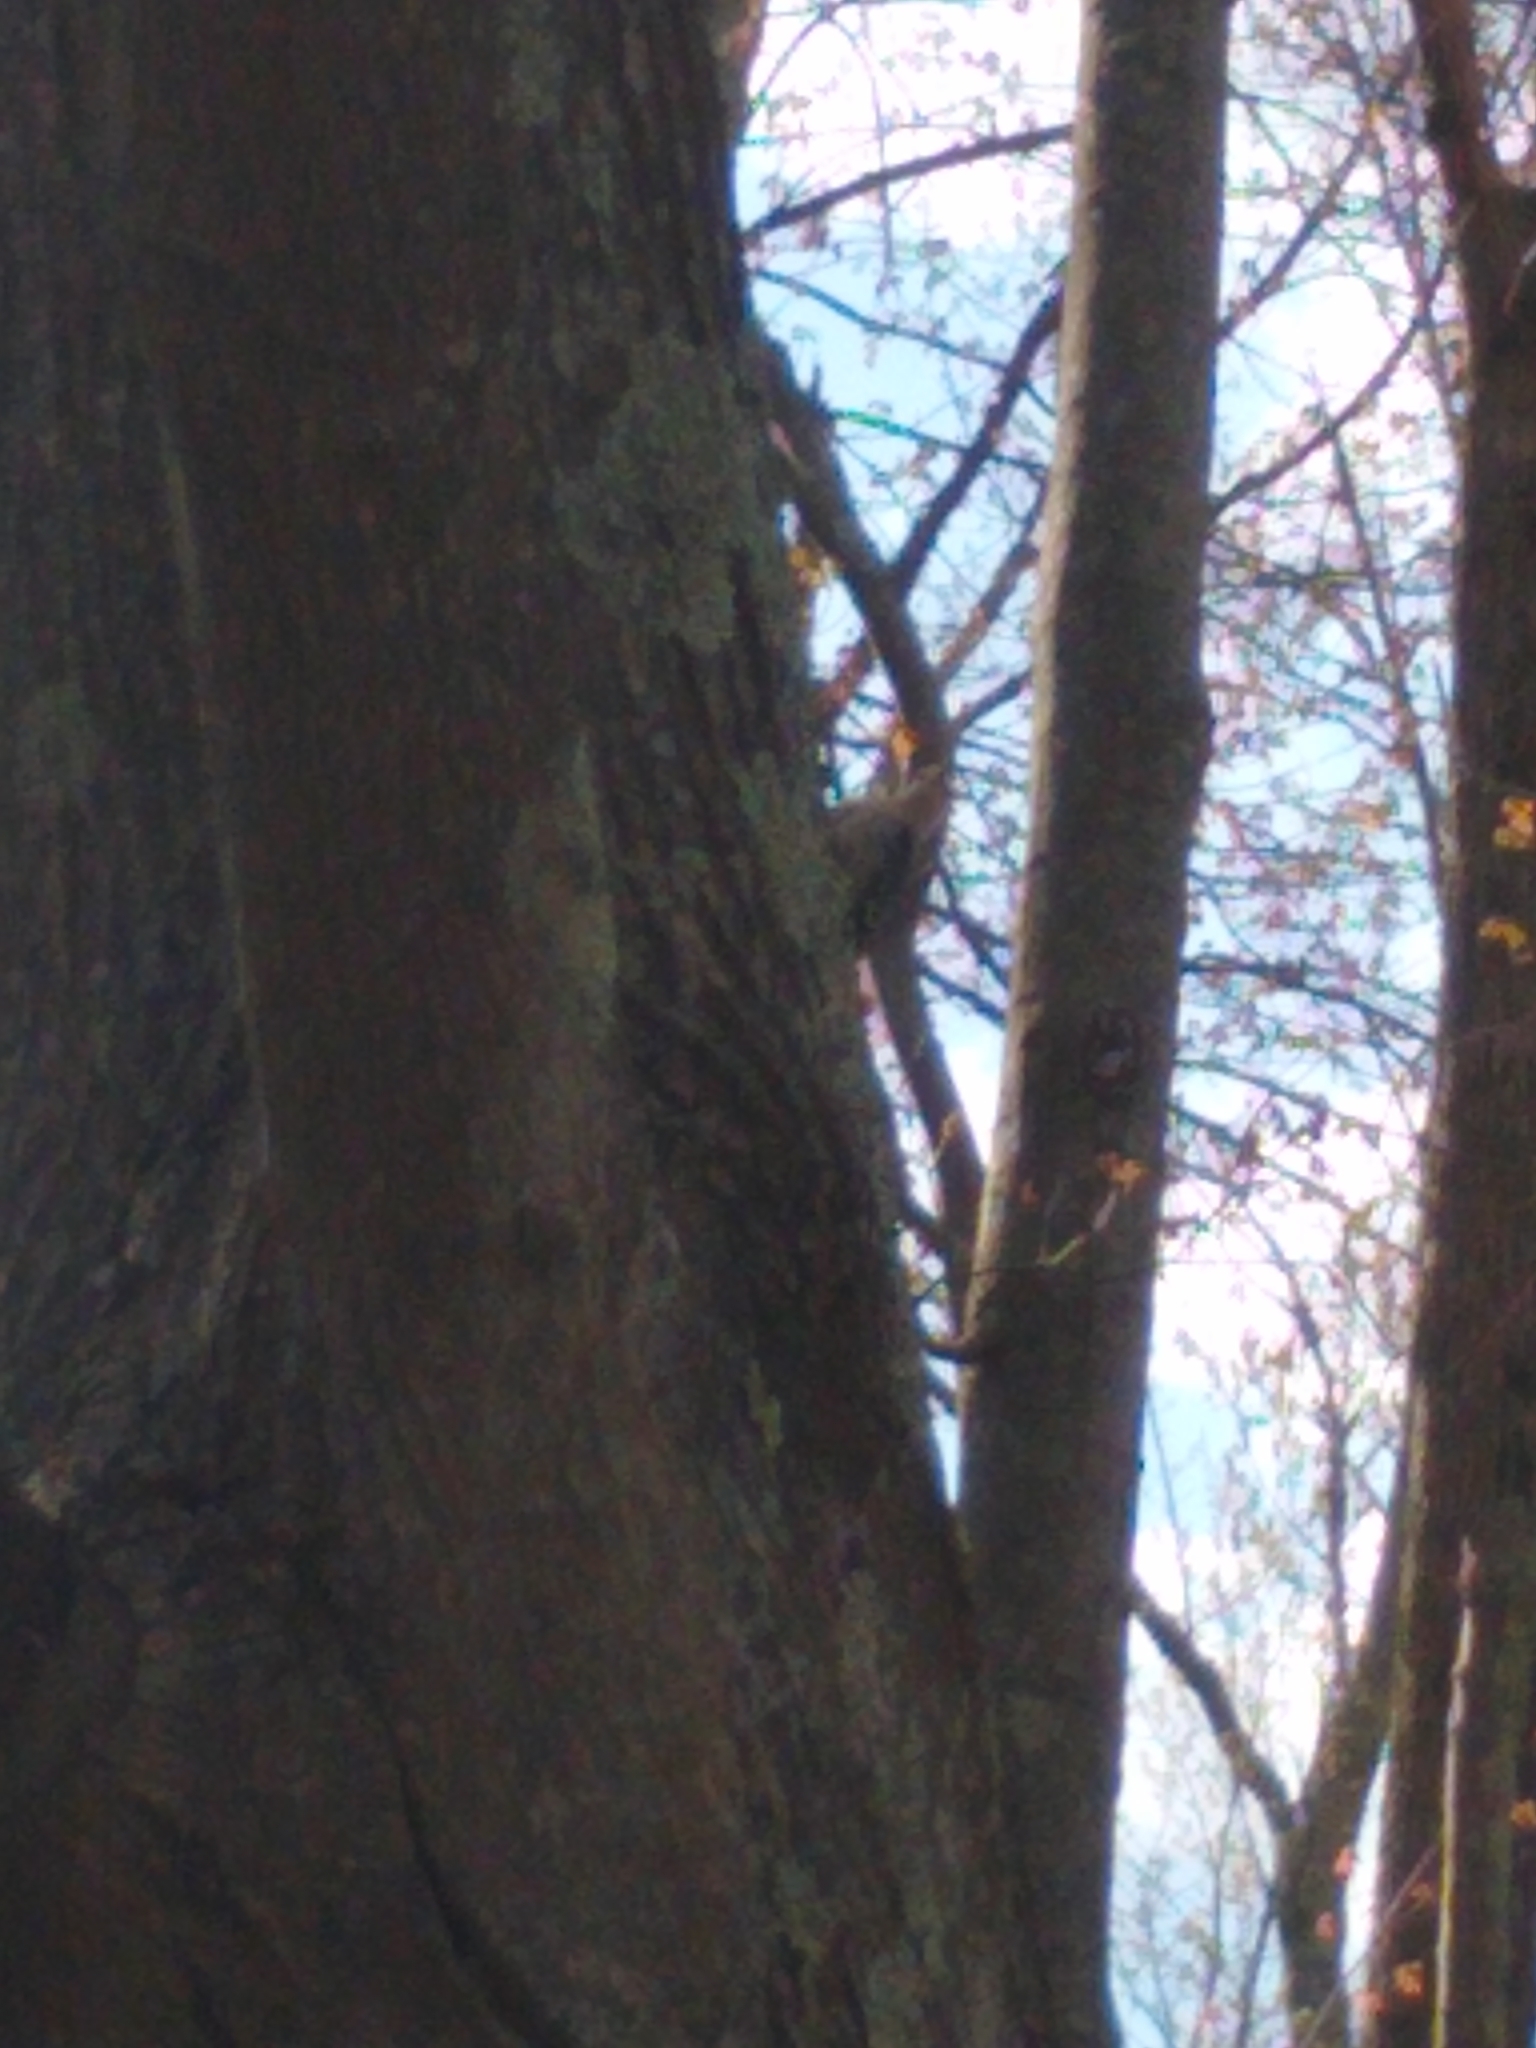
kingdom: Animalia
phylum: Chordata
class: Aves
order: Piciformes
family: Picidae
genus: Melanerpes
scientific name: Melanerpes carolinus
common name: Red-bellied woodpecker
